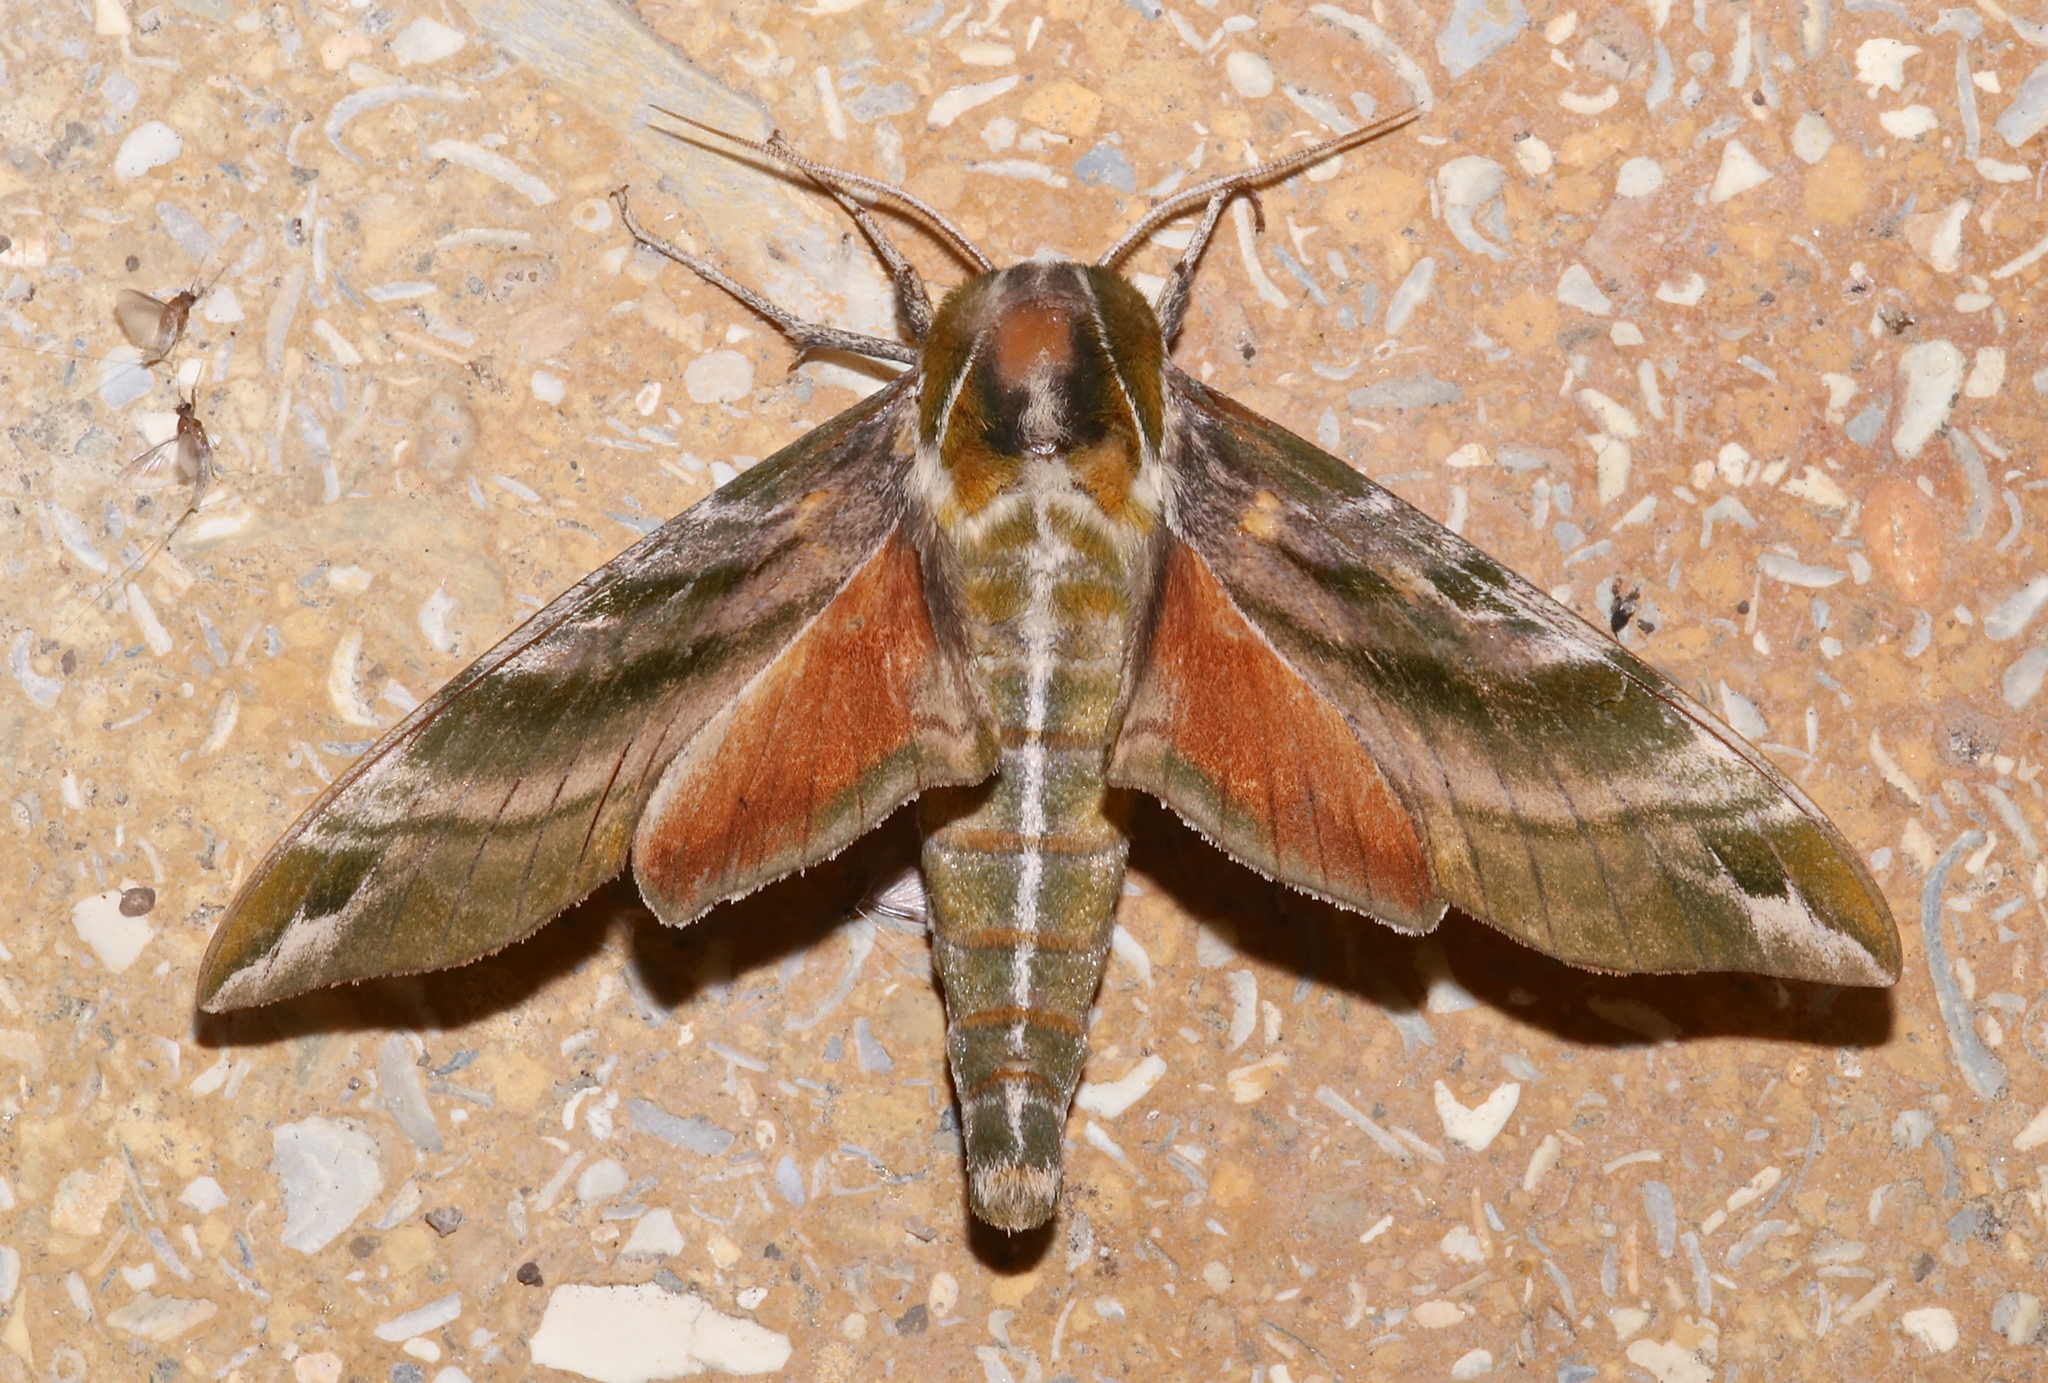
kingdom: Animalia
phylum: Arthropoda
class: Insecta
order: Lepidoptera
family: Sphingidae
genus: Darapsa
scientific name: Darapsa versicolor
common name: Hydrangea sphinx
